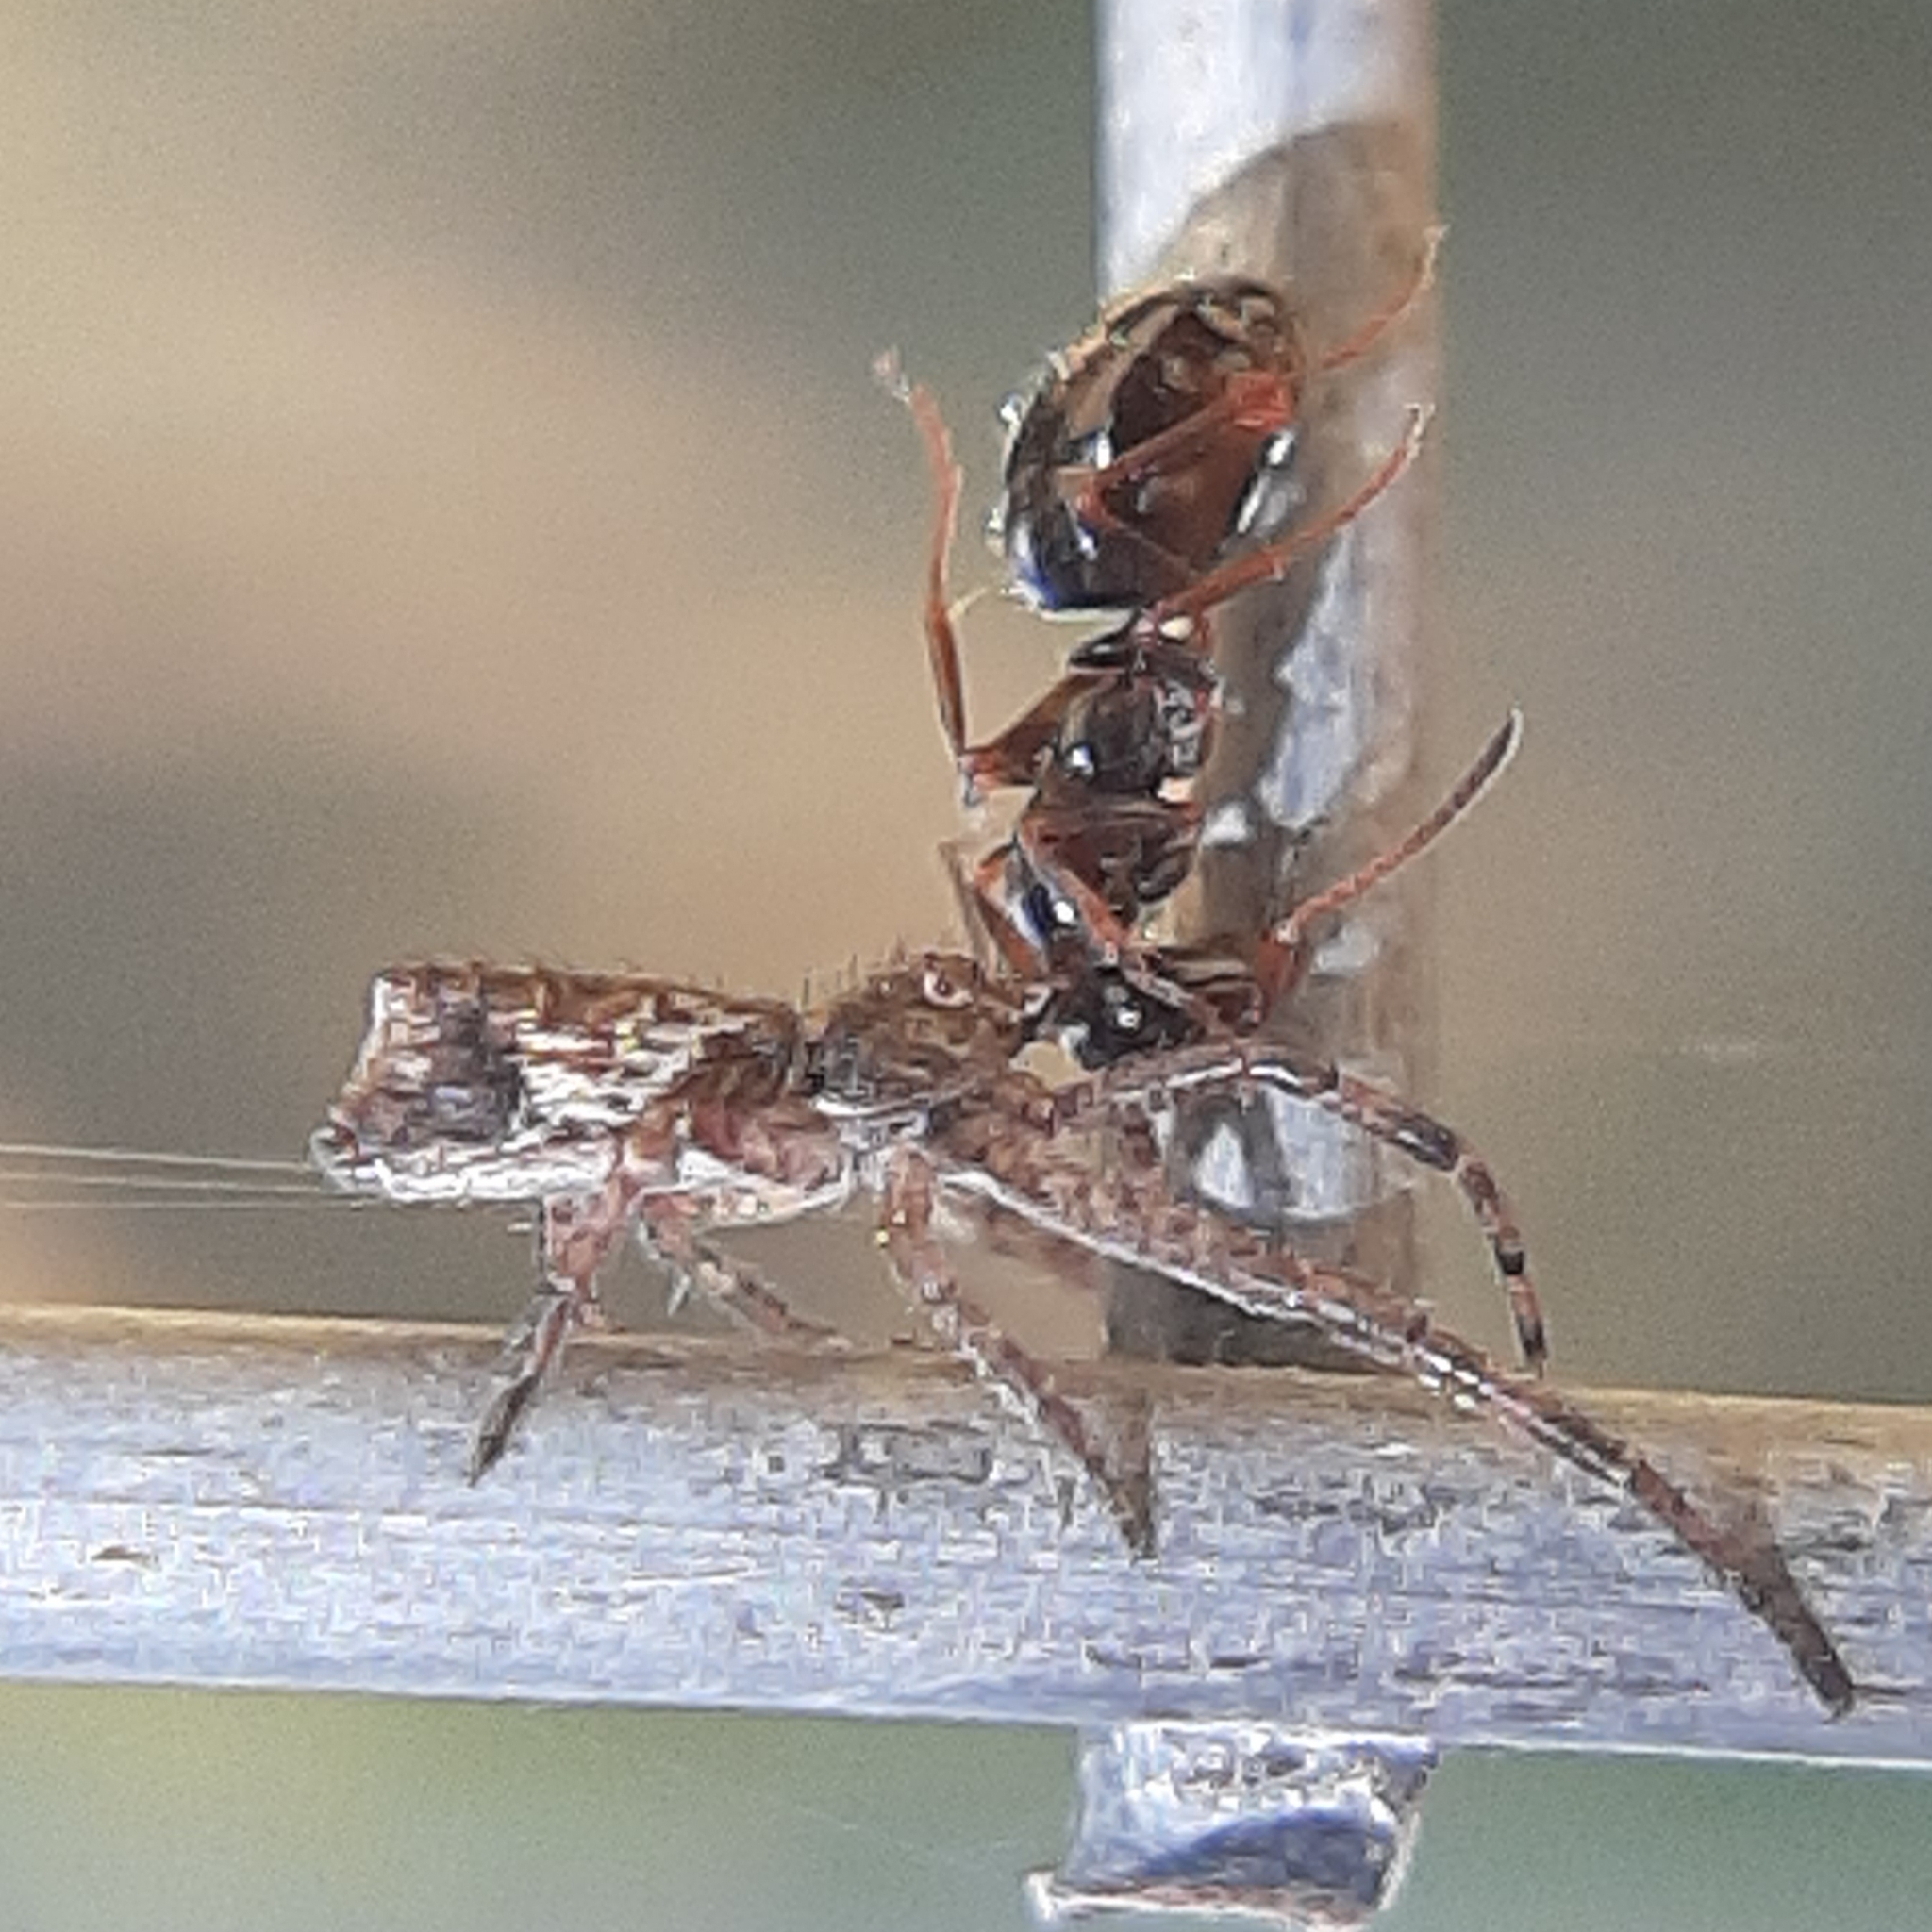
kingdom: Animalia
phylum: Arthropoda
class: Arachnida
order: Araneae
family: Thomisidae
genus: Tmarus
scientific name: Tmarus angulatus
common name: Tuberculated crab spider
